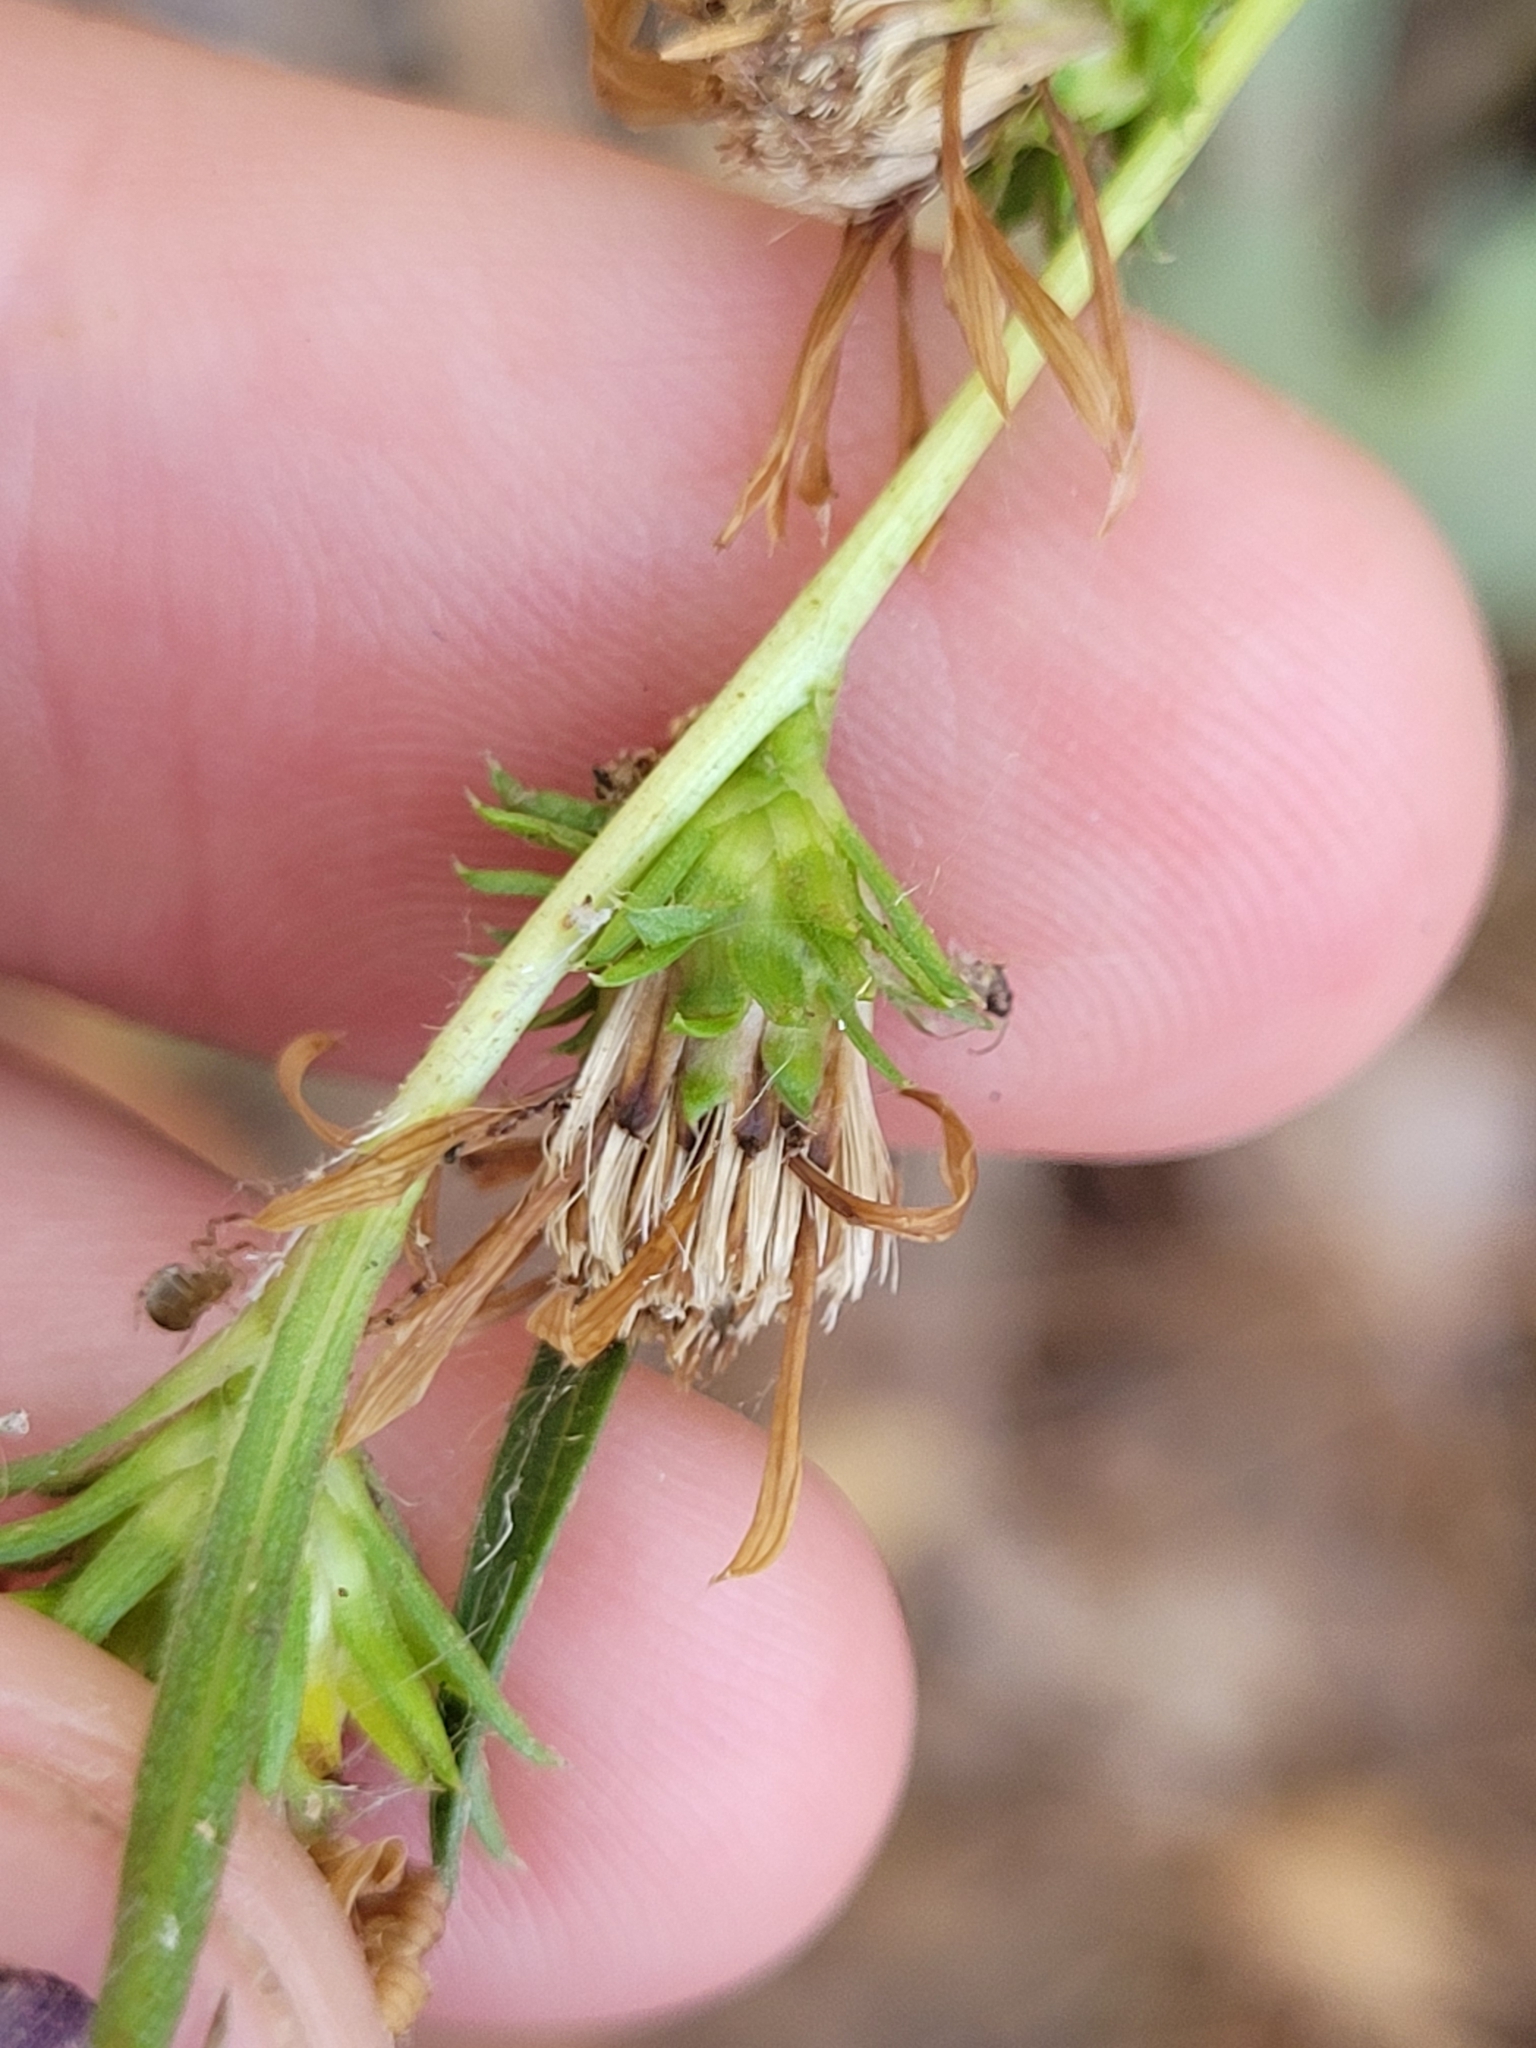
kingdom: Plantae
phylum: Tracheophyta
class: Magnoliopsida
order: Asterales
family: Asteraceae
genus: Eurybia
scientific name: Eurybia hemispherica
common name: Showy aster
